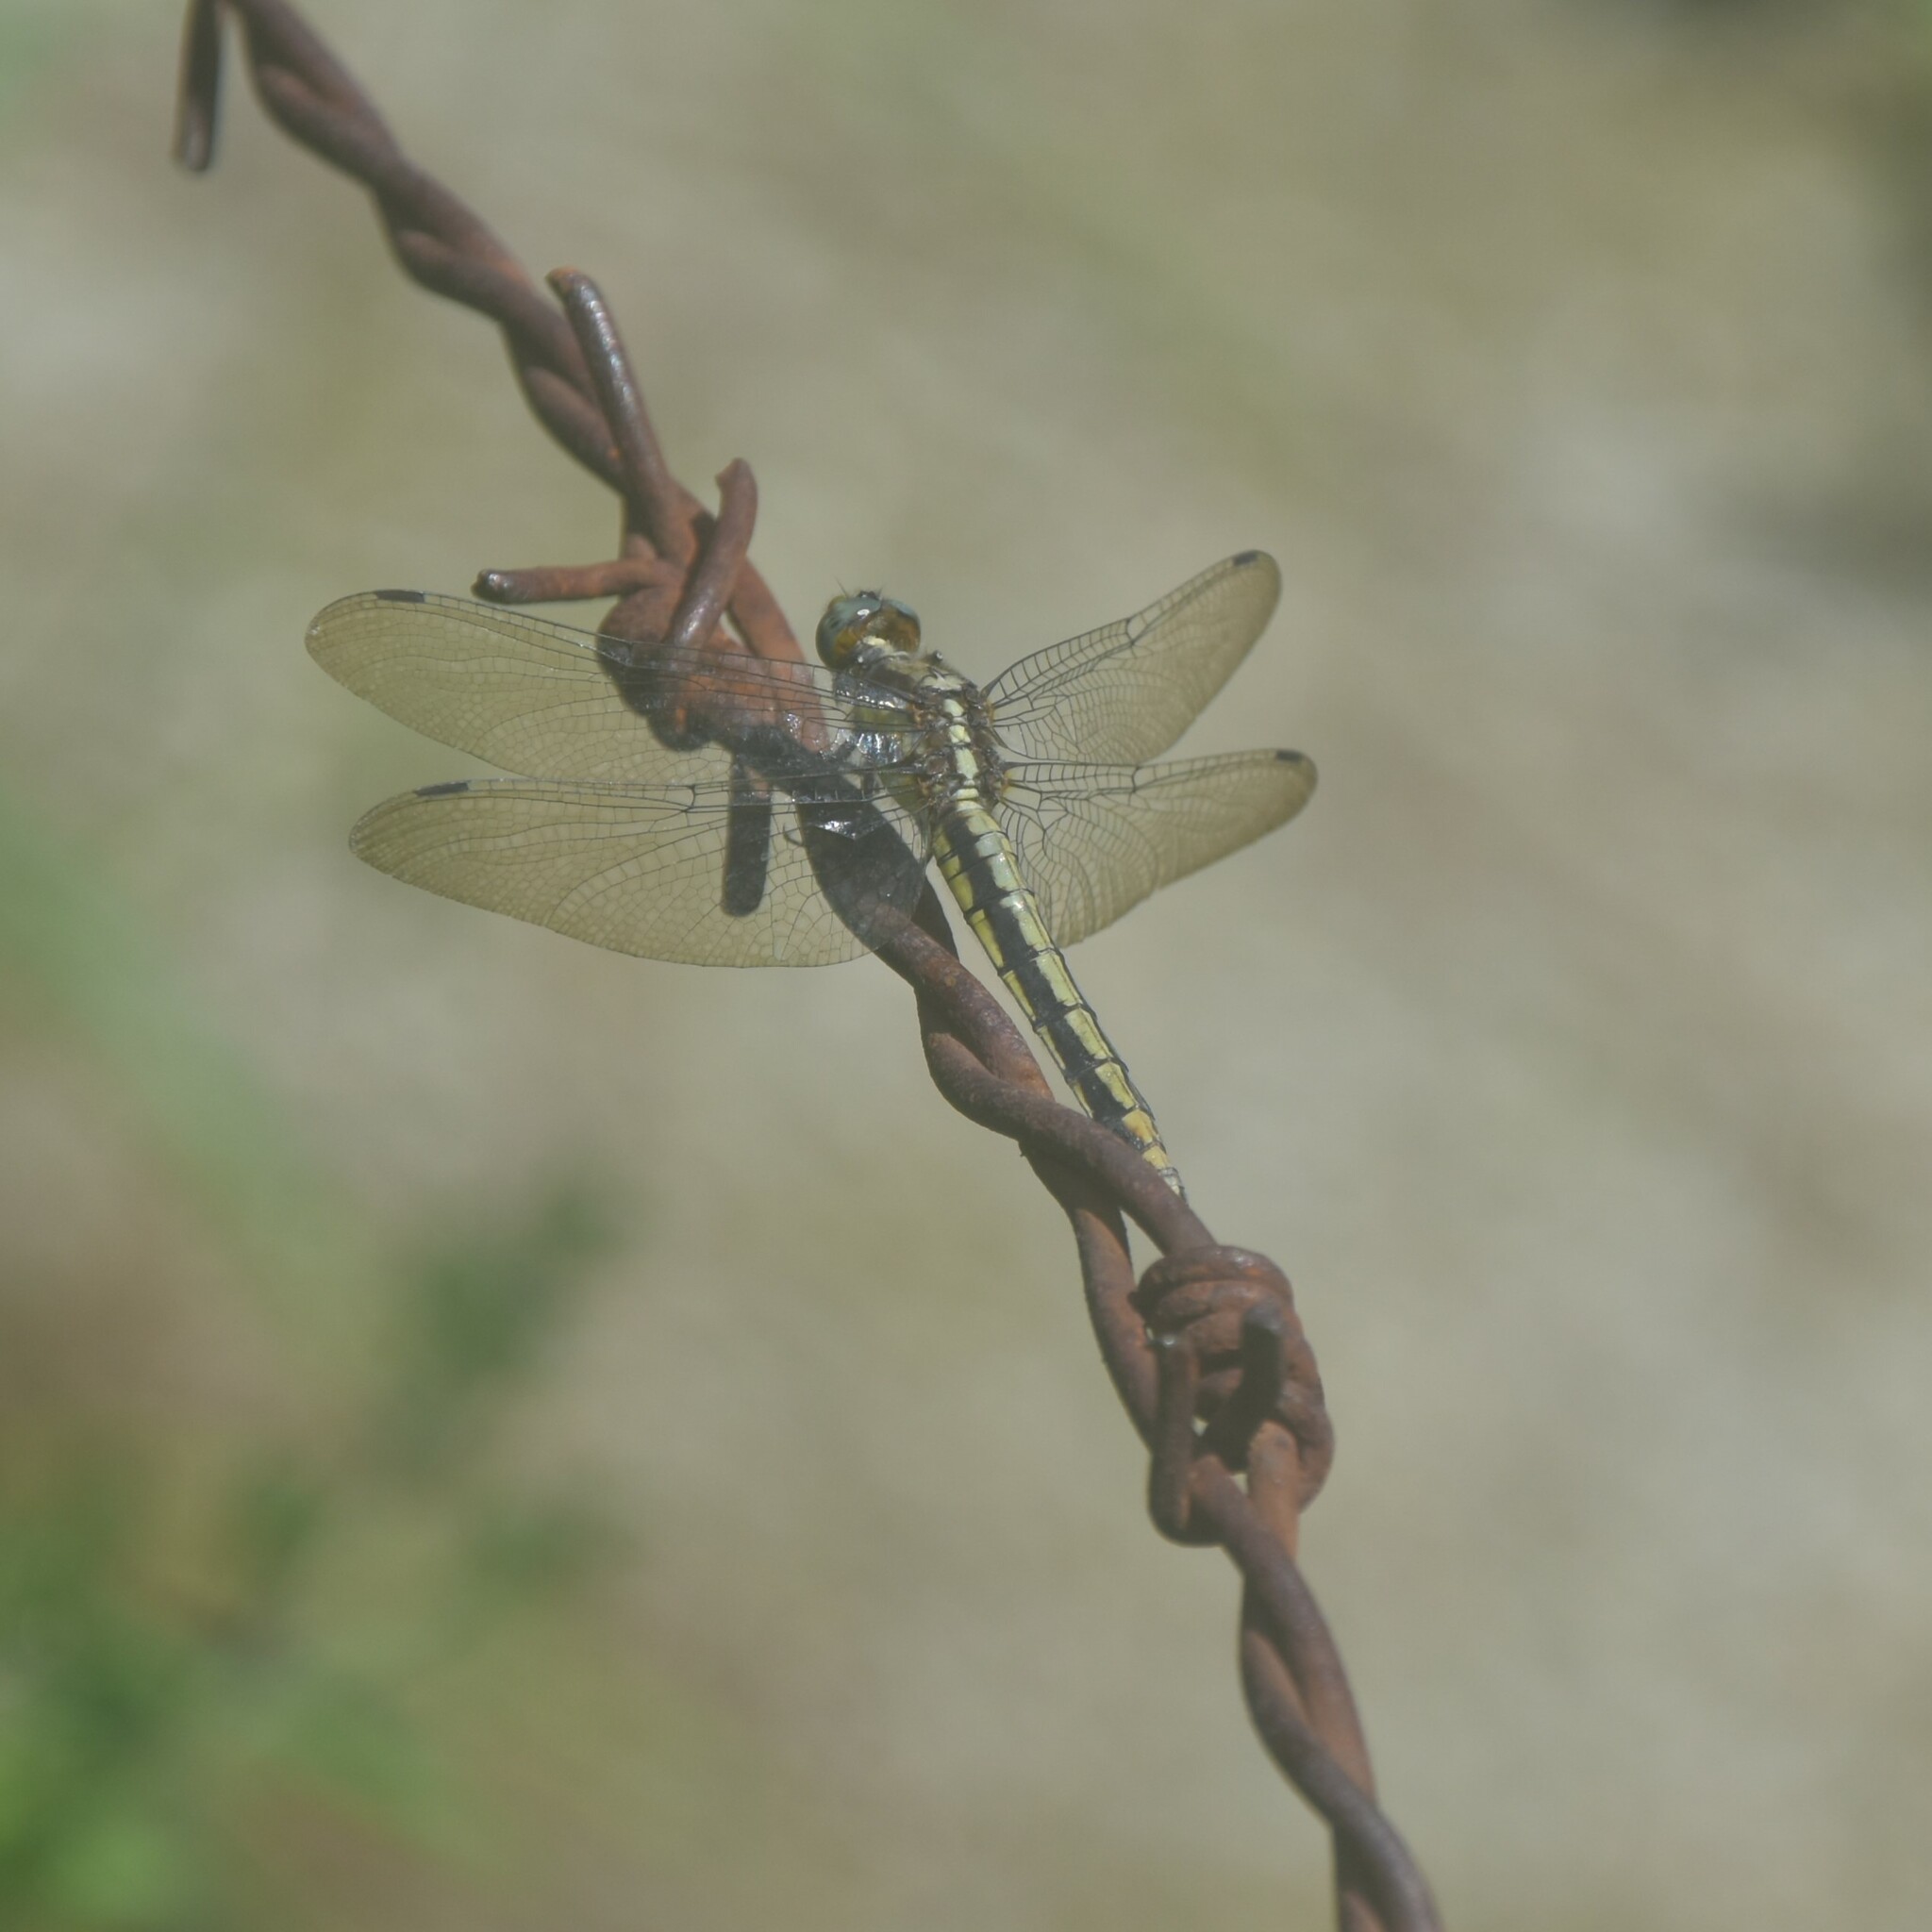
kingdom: Animalia
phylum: Arthropoda
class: Insecta
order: Odonata
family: Libellulidae
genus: Orthetrum
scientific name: Orthetrum internum
